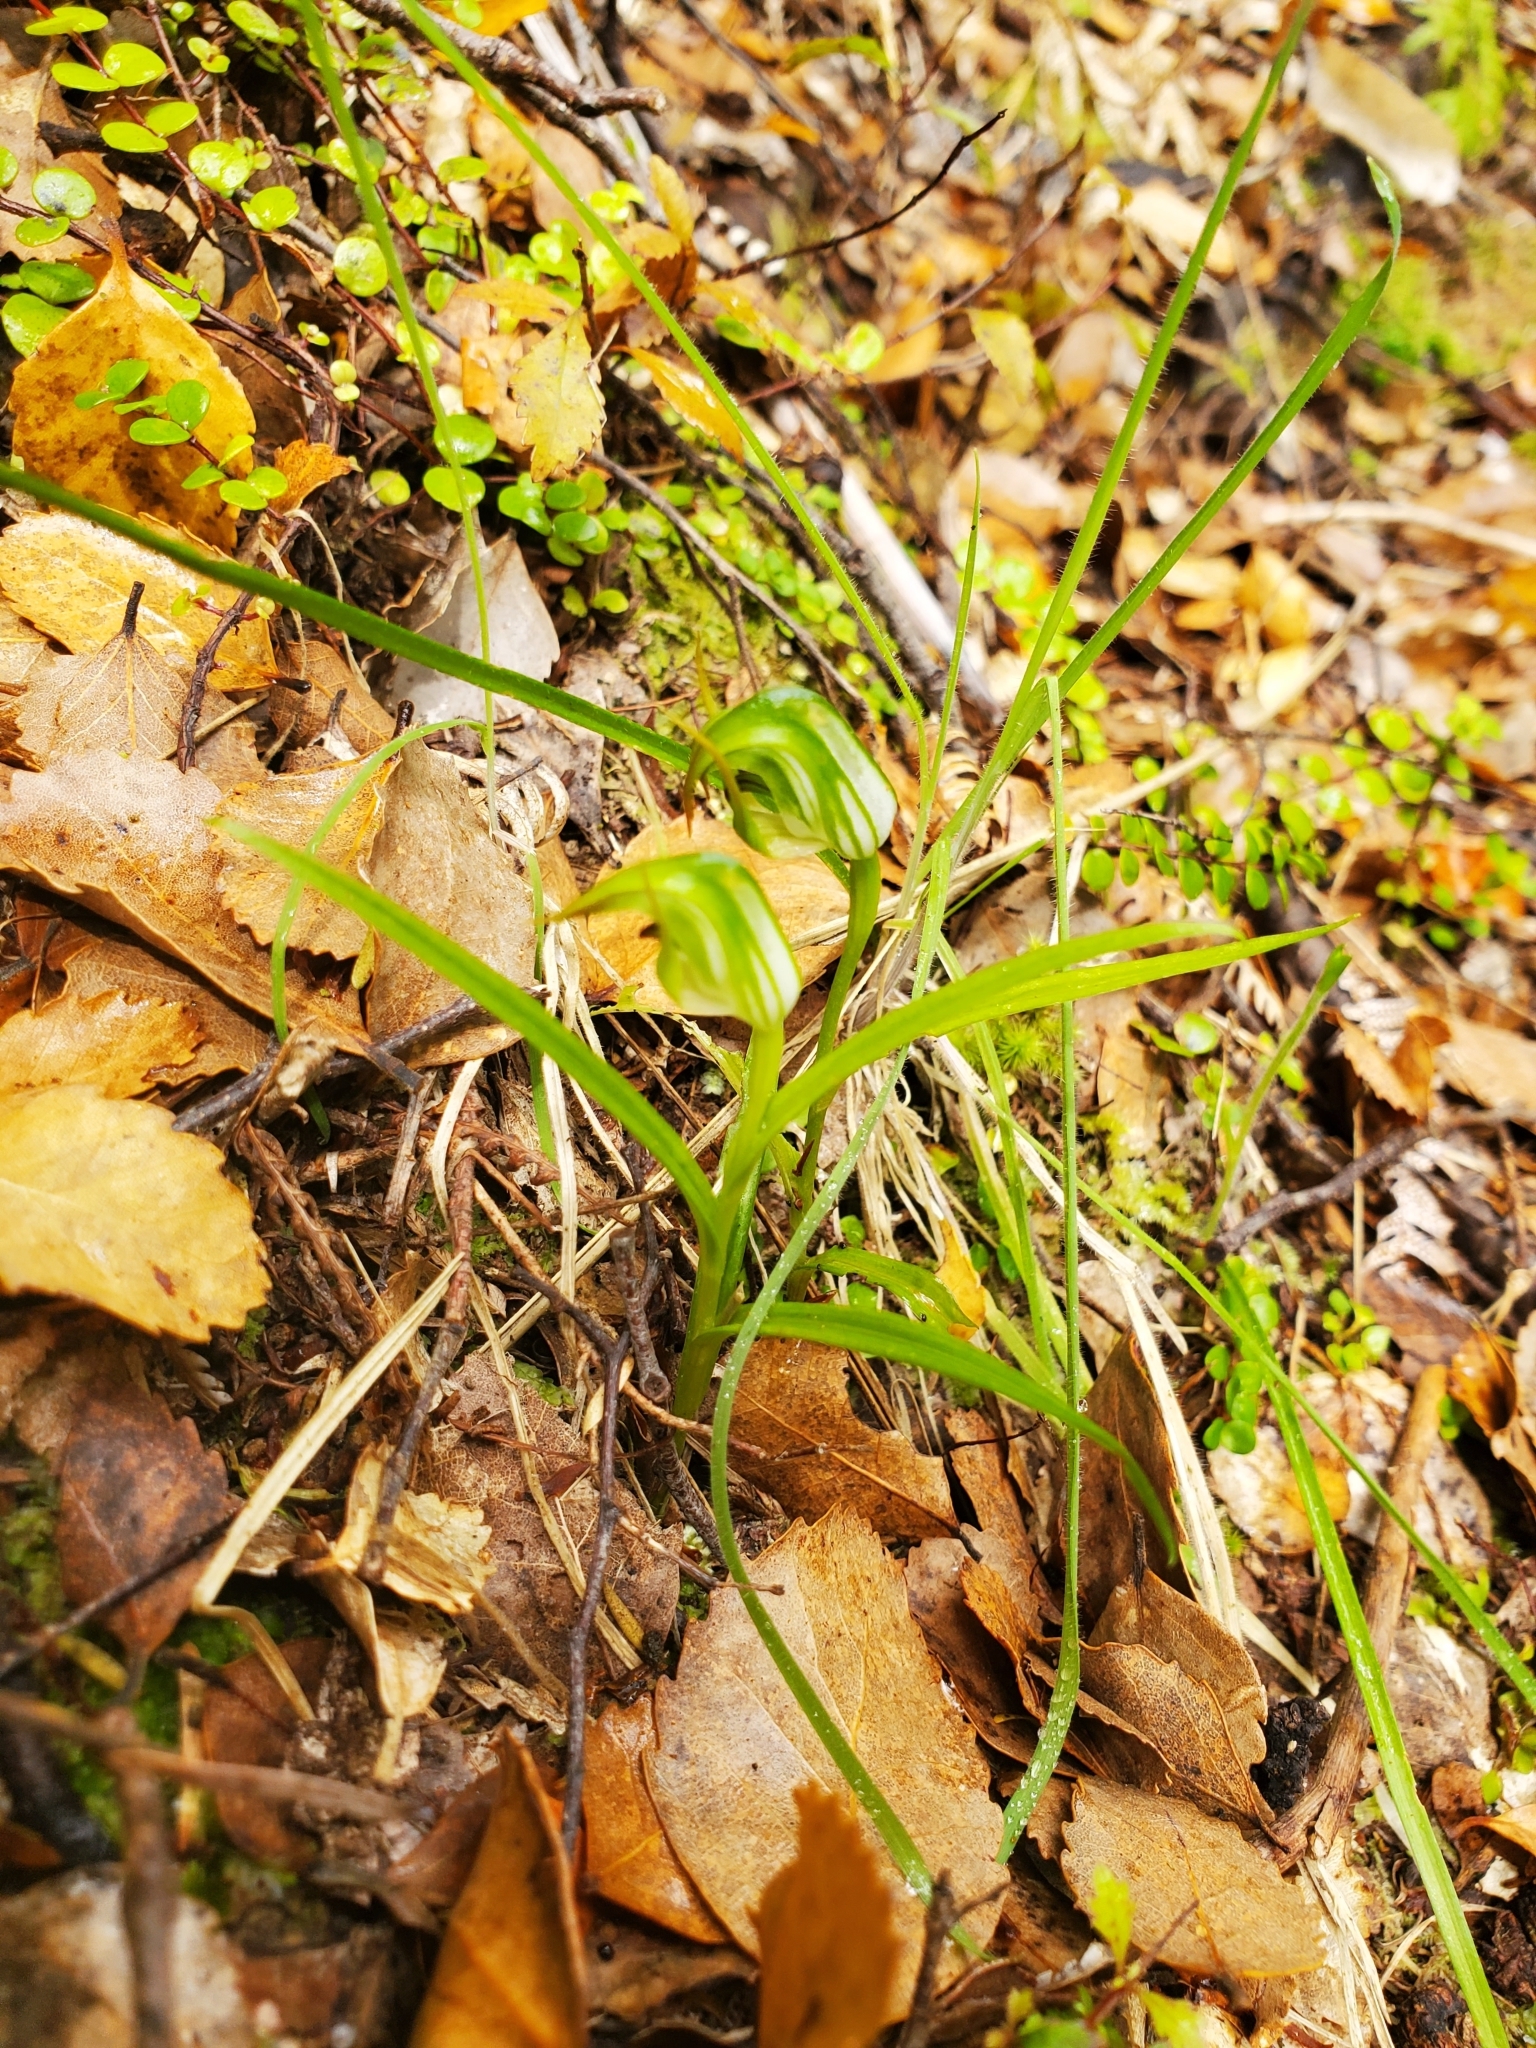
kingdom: Plantae
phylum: Tracheophyta
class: Liliopsida
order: Asparagales
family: Orchidaceae
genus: Pterostylis
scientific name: Pterostylis graminea
